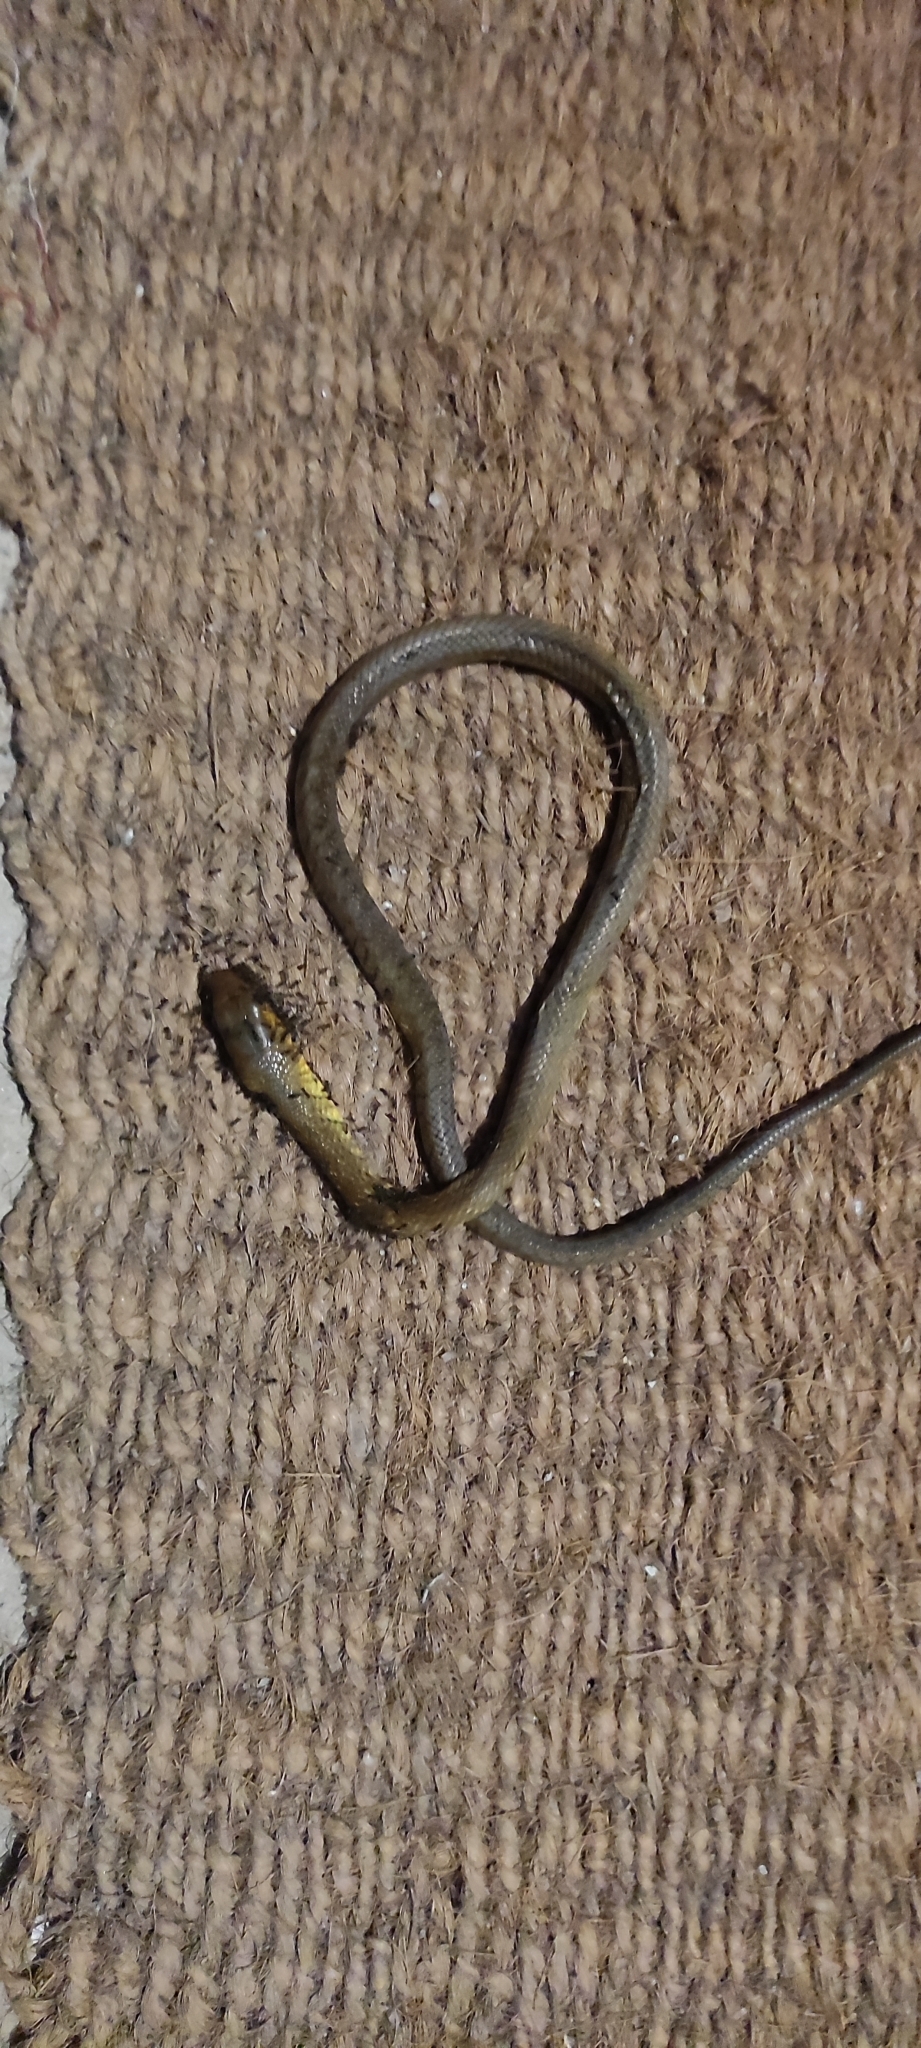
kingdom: Animalia
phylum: Chordata
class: Squamata
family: Colubridae
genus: Ptyas
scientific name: Ptyas mucosa
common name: Oriental ratsnake
